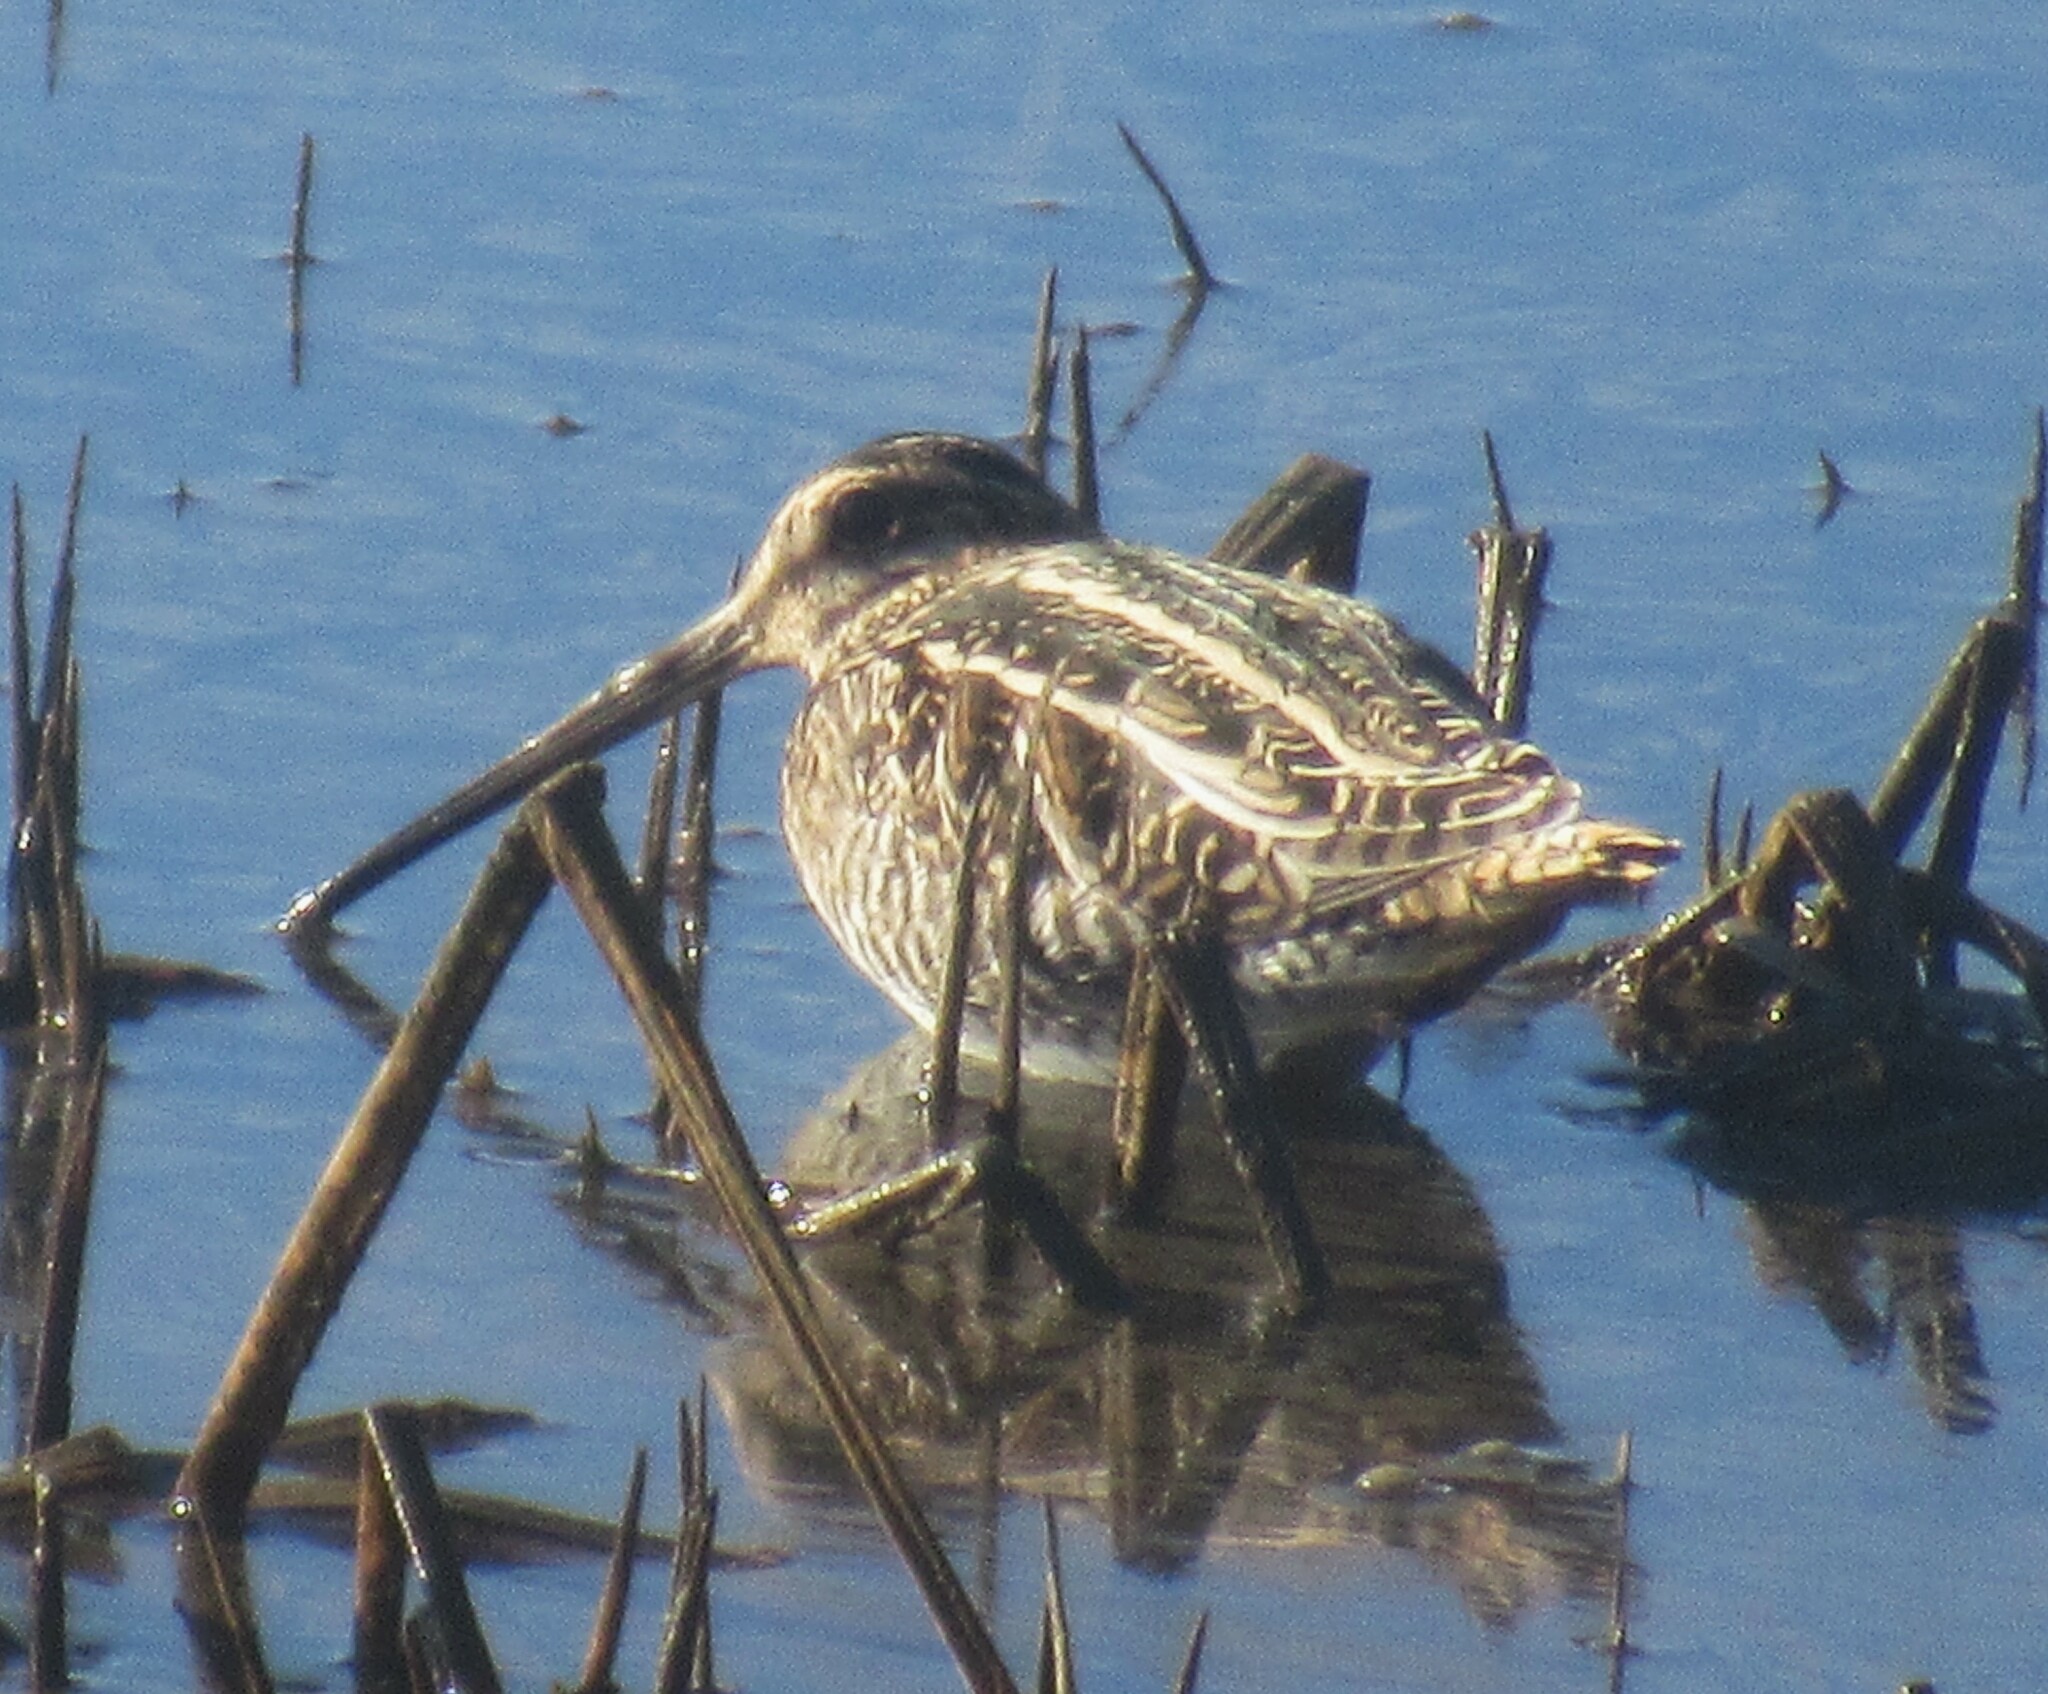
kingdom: Animalia
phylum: Chordata
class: Aves
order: Charadriiformes
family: Scolopacidae
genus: Gallinago
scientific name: Gallinago delicata
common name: Wilson's snipe
